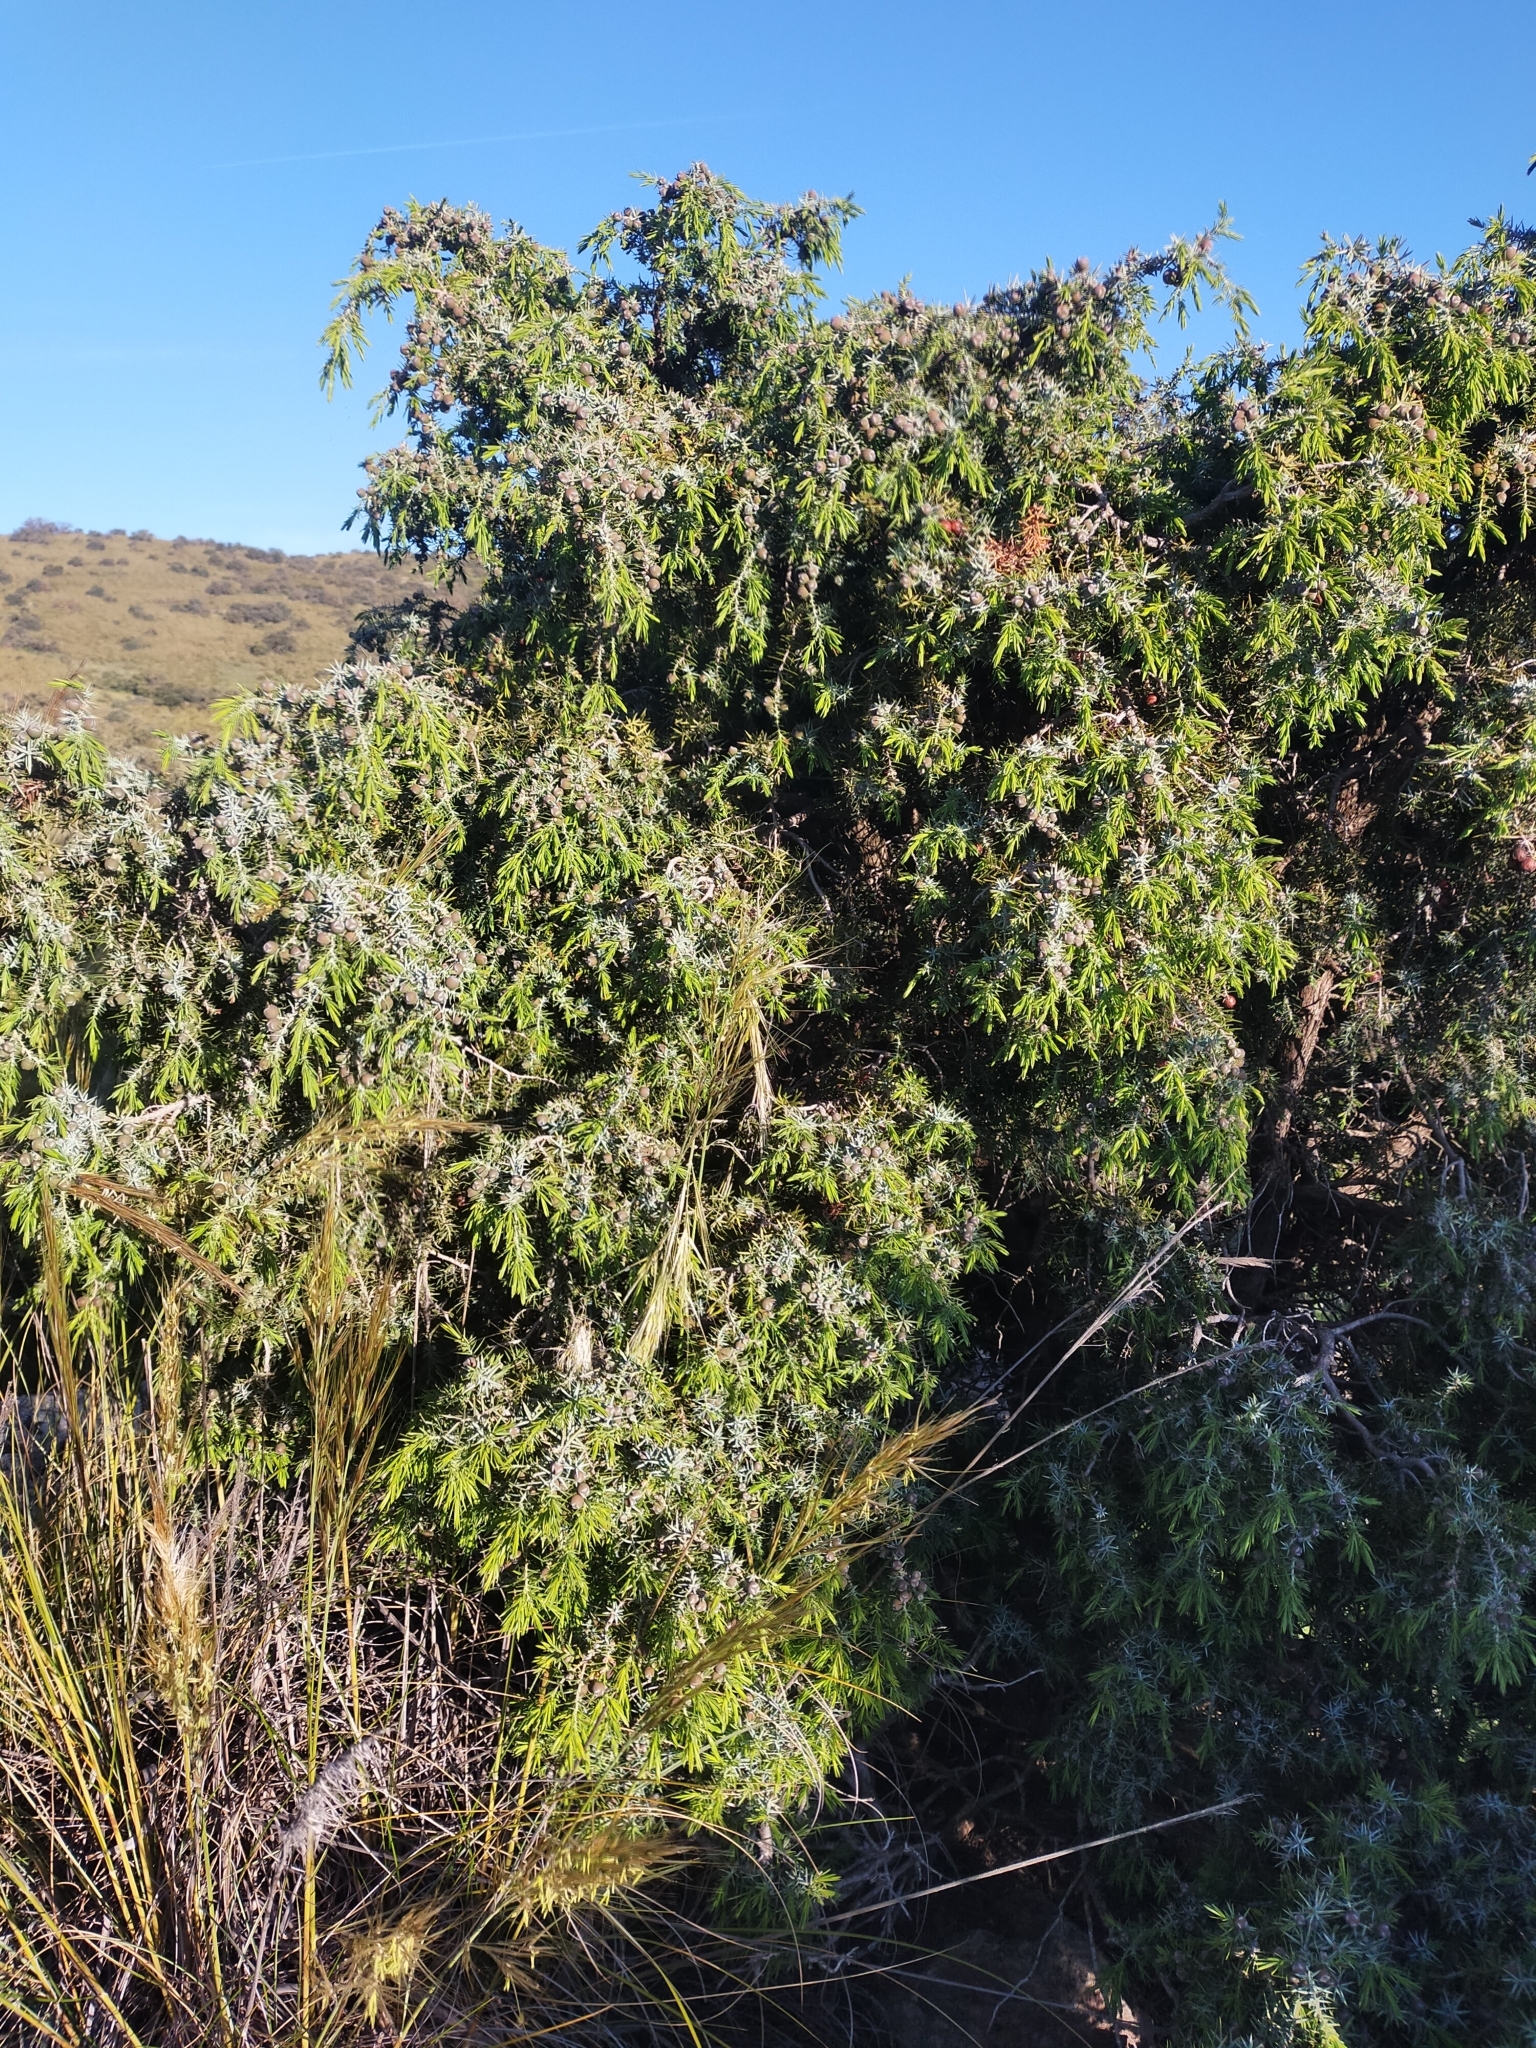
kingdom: Plantae
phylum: Tracheophyta
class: Pinopsida
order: Pinales
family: Cupressaceae
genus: Juniperus
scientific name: Juniperus oxycedrus
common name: Prickly juniper
